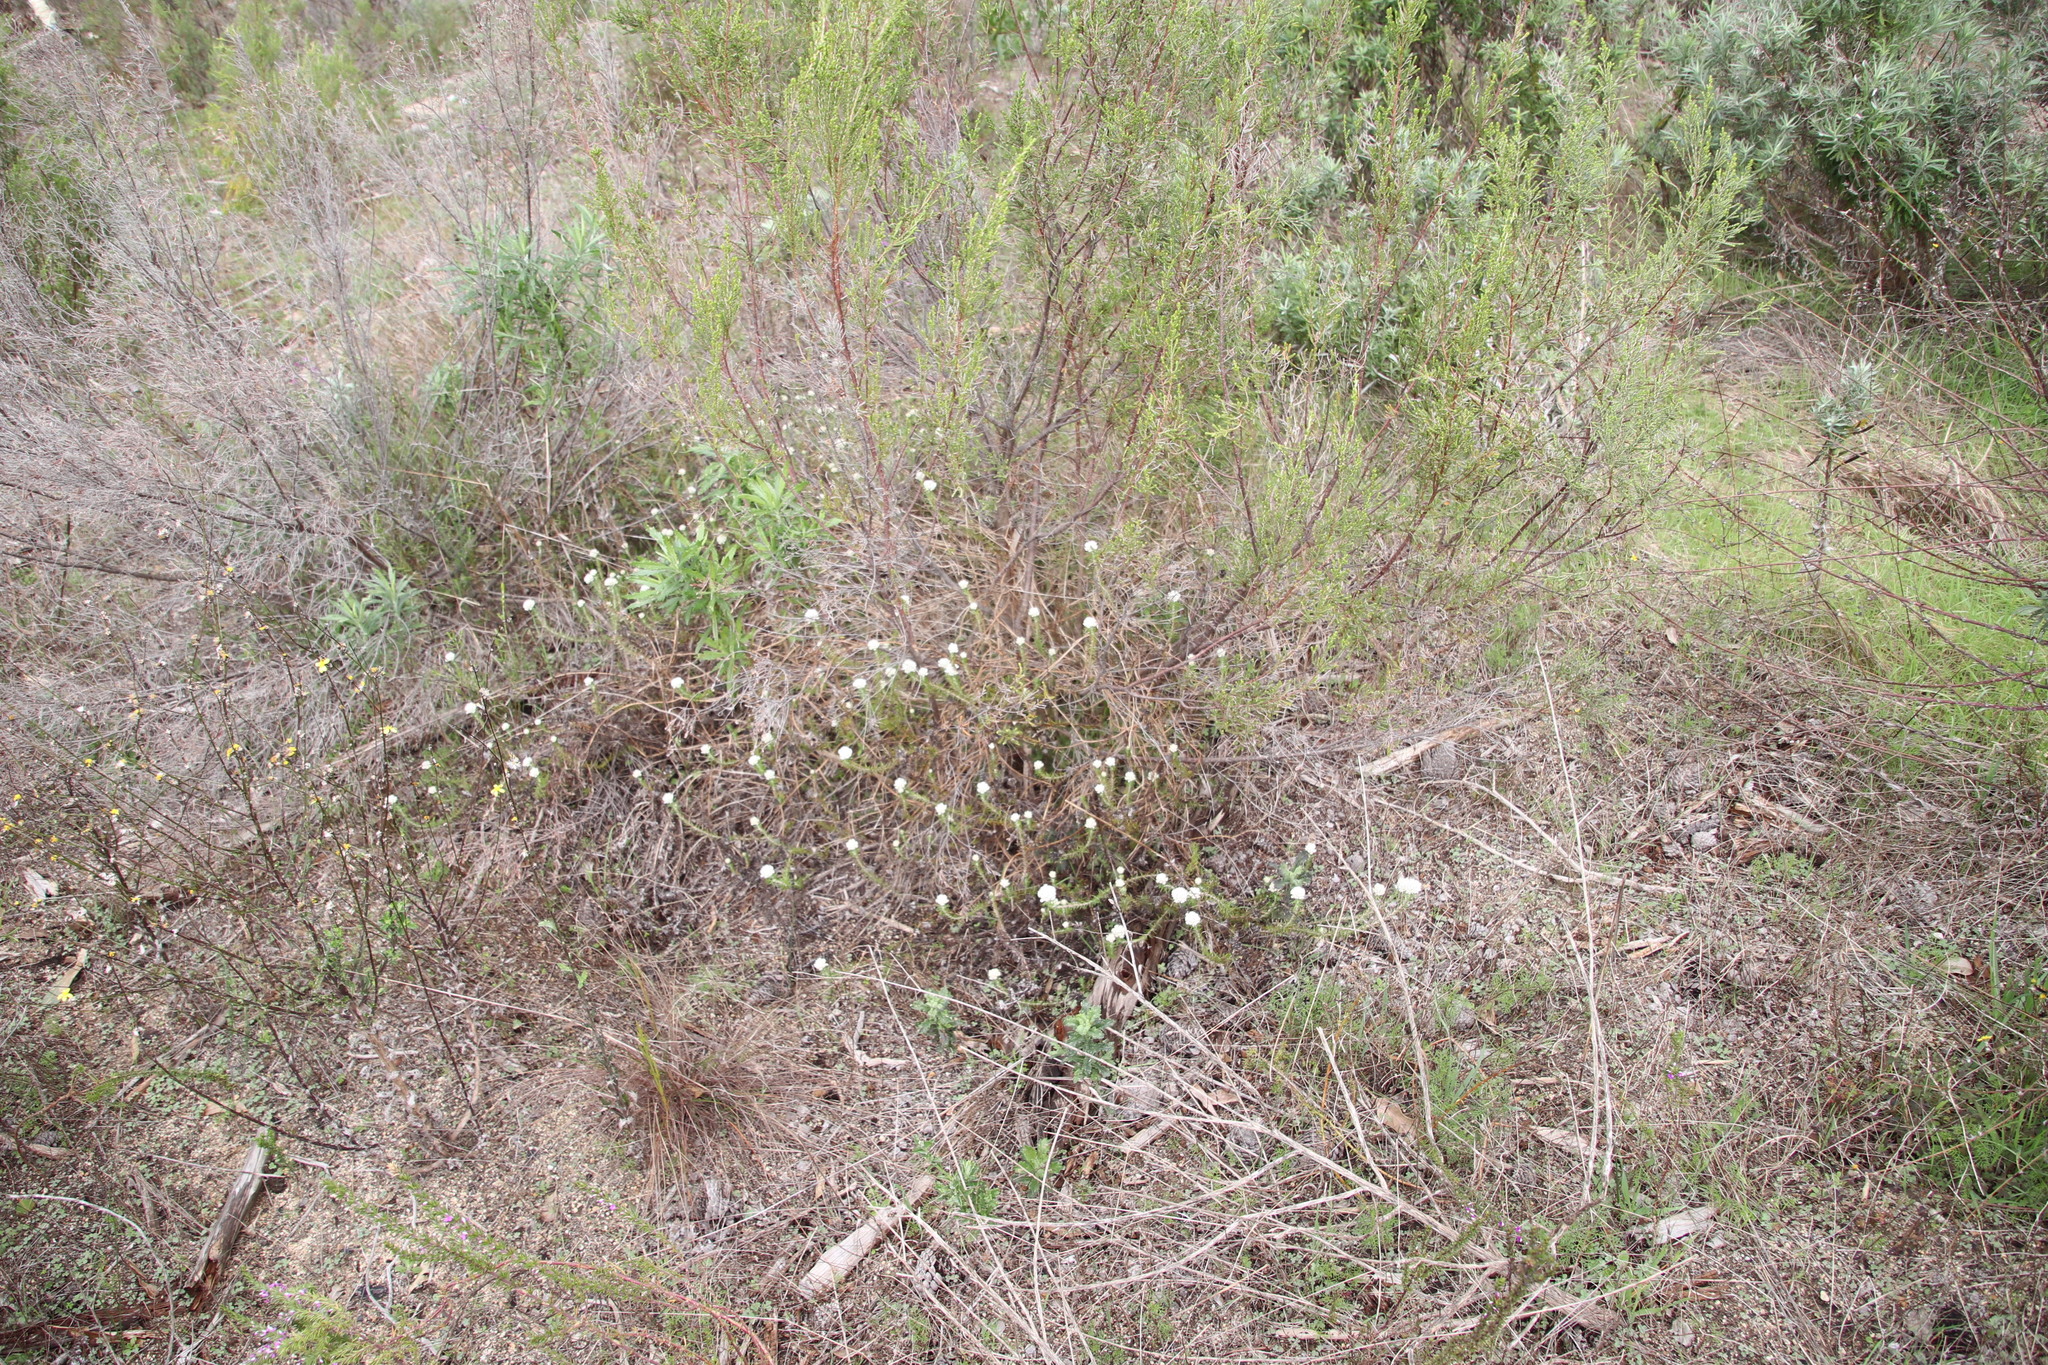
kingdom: Plantae
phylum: Tracheophyta
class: Magnoliopsida
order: Asterales
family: Asteraceae
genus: Metalasia
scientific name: Metalasia pulchella
